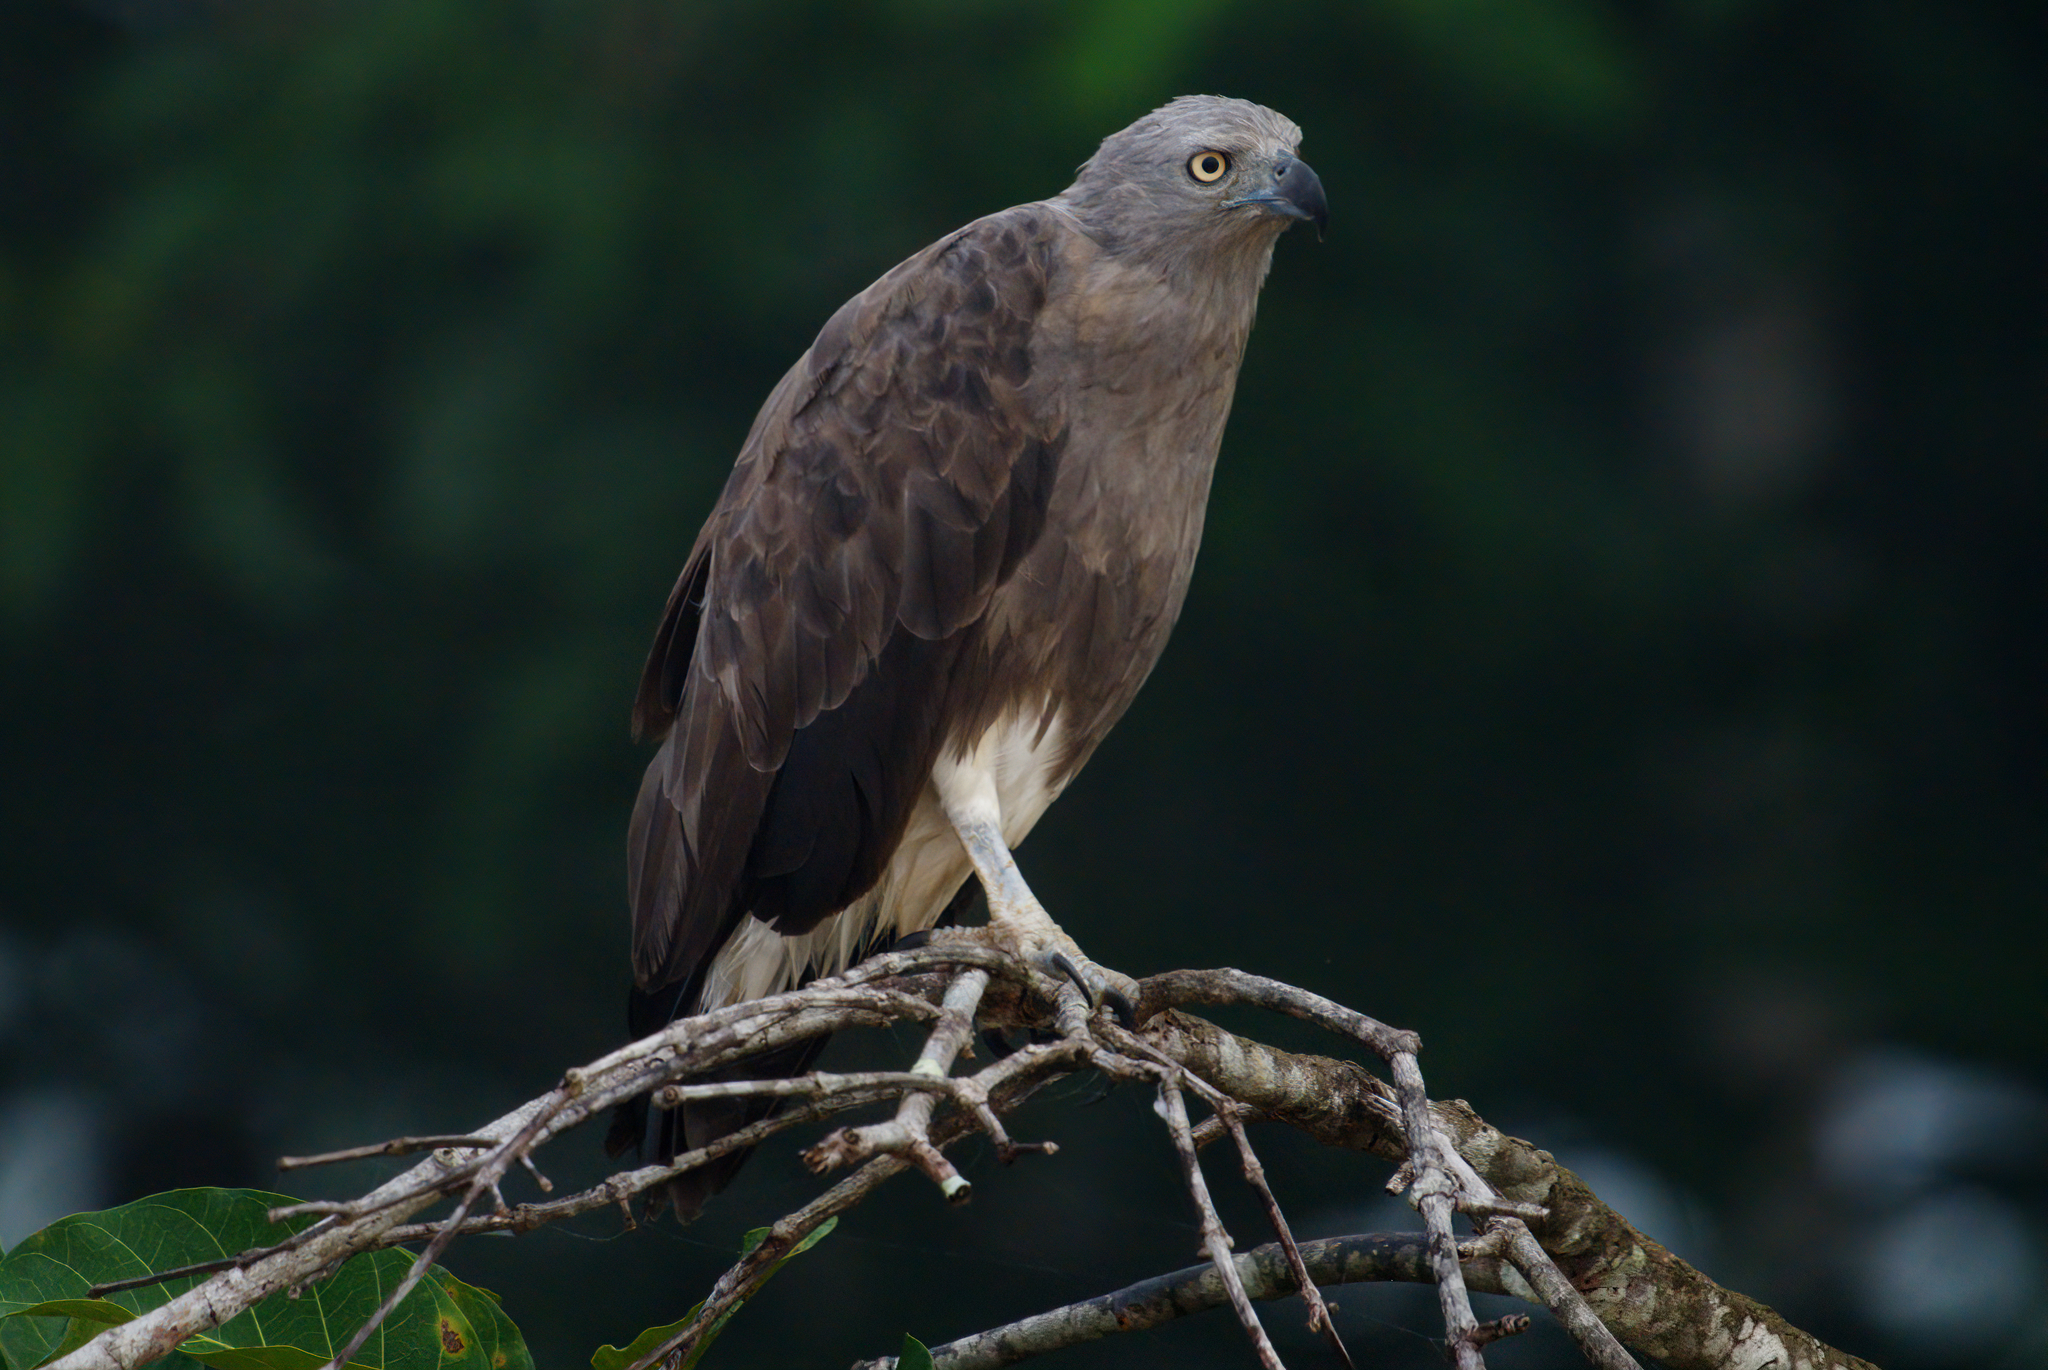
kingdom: Animalia
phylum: Chordata
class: Aves
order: Accipitriformes
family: Accipitridae
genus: Icthyophaga
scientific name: Icthyophaga humilis
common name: Lesser fish-eagle
